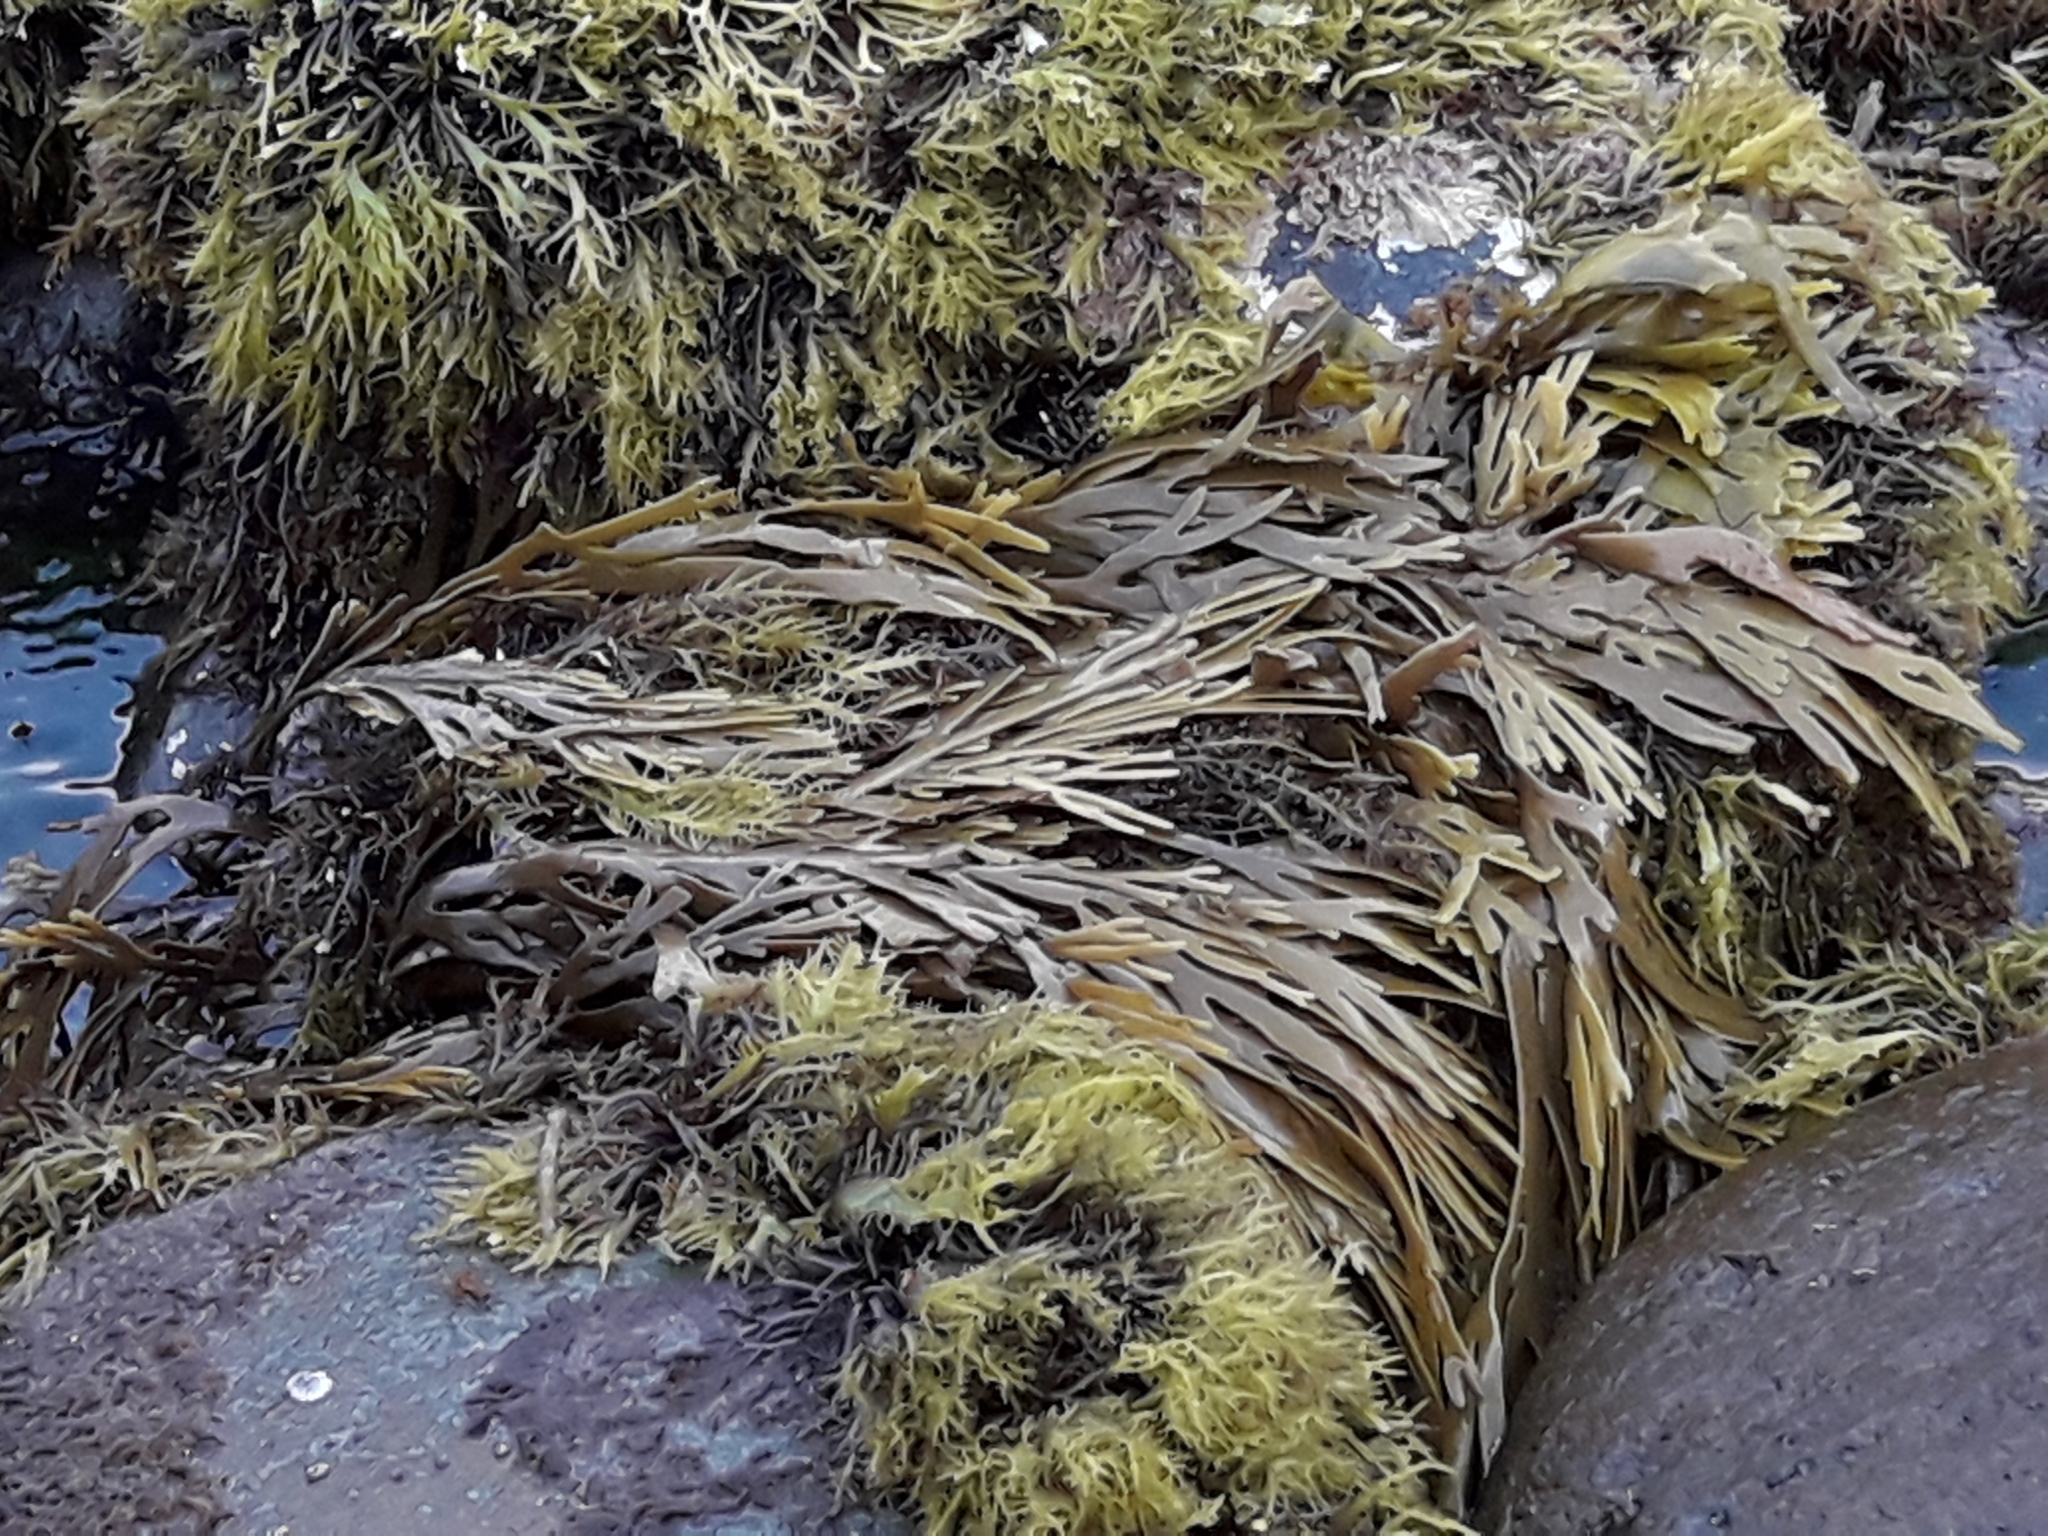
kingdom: Chromista
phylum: Ochrophyta
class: Phaeophyceae
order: Fucales
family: Xiphophoraceae
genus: Xiphophora
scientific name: Xiphophora gladiata
